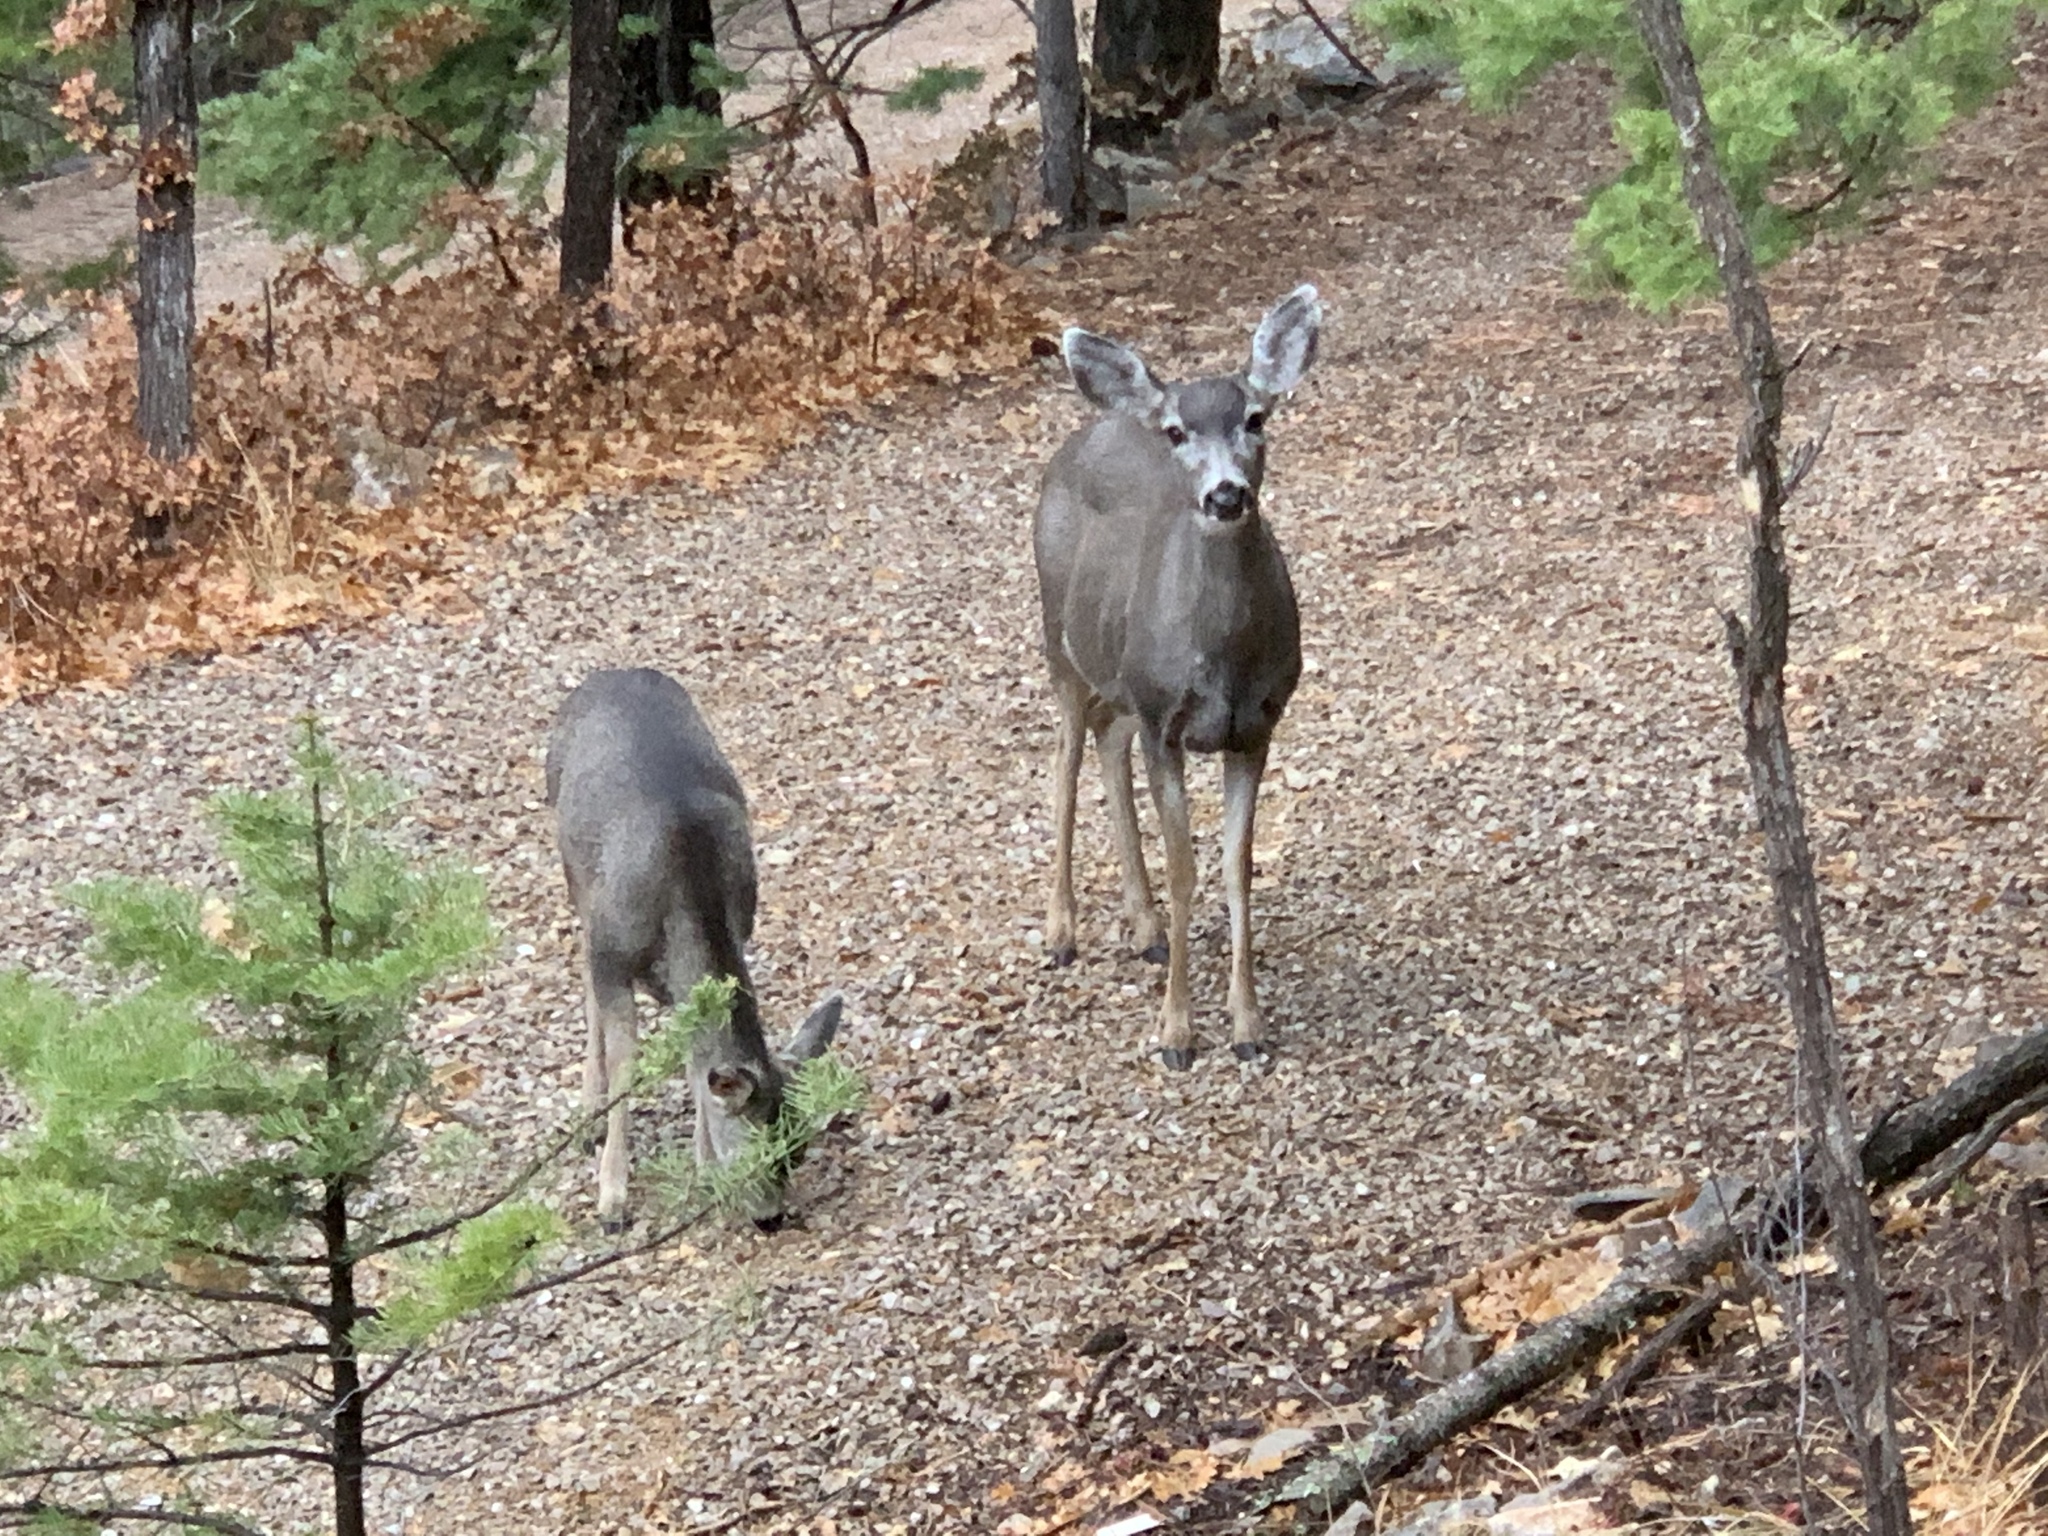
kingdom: Animalia
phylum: Chordata
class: Mammalia
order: Artiodactyla
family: Cervidae
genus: Odocoileus
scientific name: Odocoileus hemionus
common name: Mule deer
